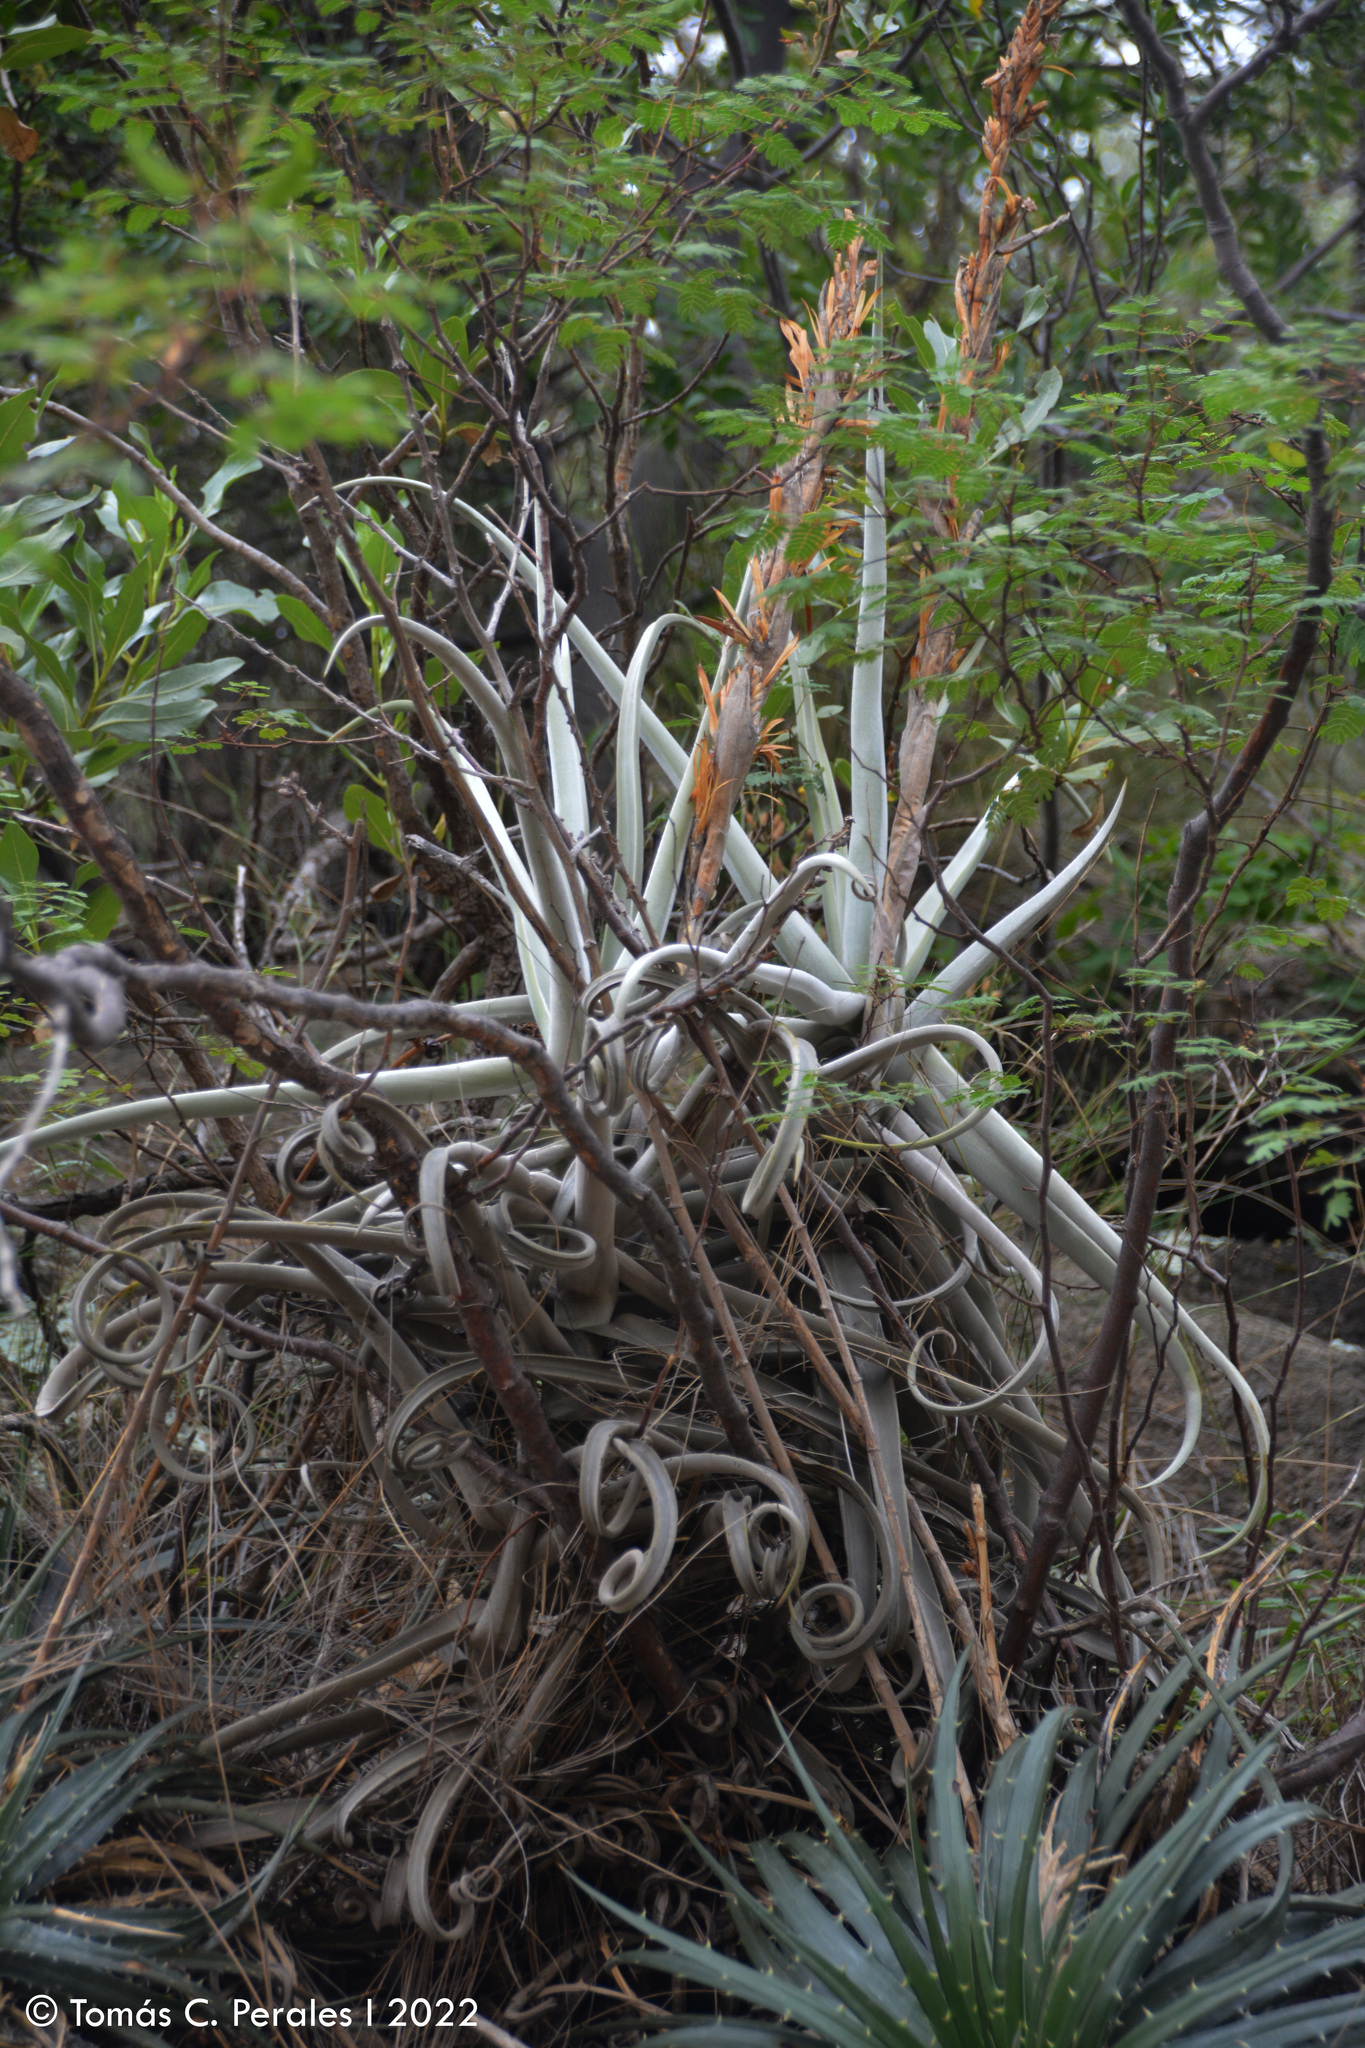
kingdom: Plantae
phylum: Tracheophyta
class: Liliopsida
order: Poales
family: Bromeliaceae
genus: Tillandsia
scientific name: Tillandsia duratii
